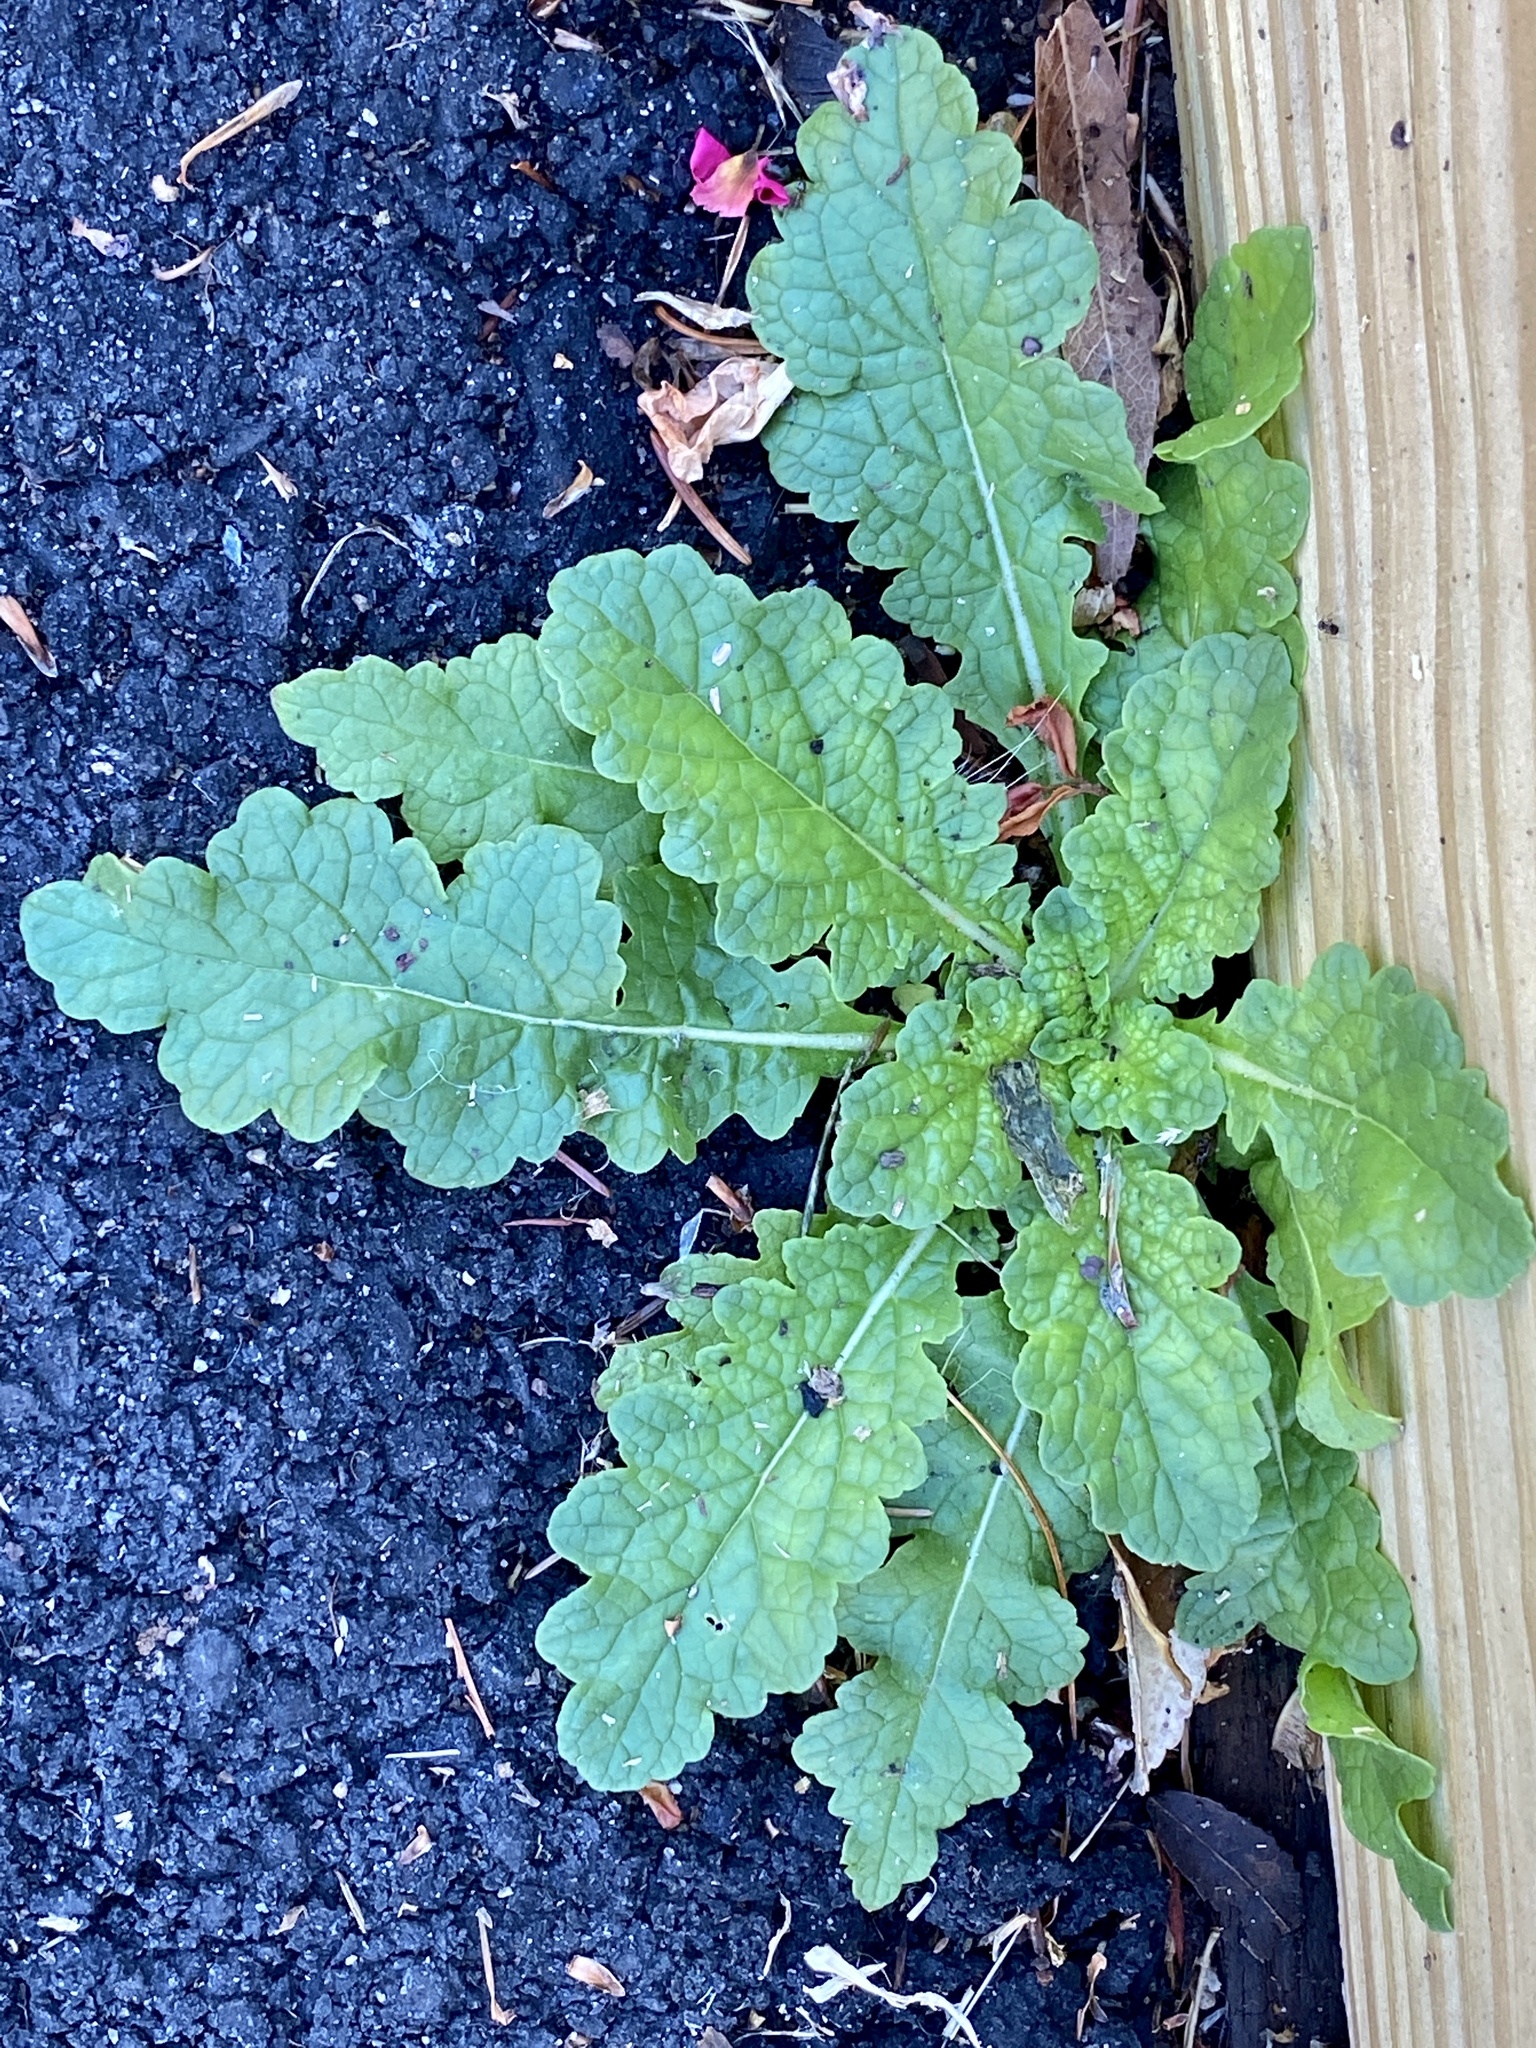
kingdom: Plantae
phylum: Tracheophyta
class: Magnoliopsida
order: Lamiales
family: Scrophulariaceae
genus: Verbascum
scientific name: Verbascum blattaria
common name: Moth mullein
